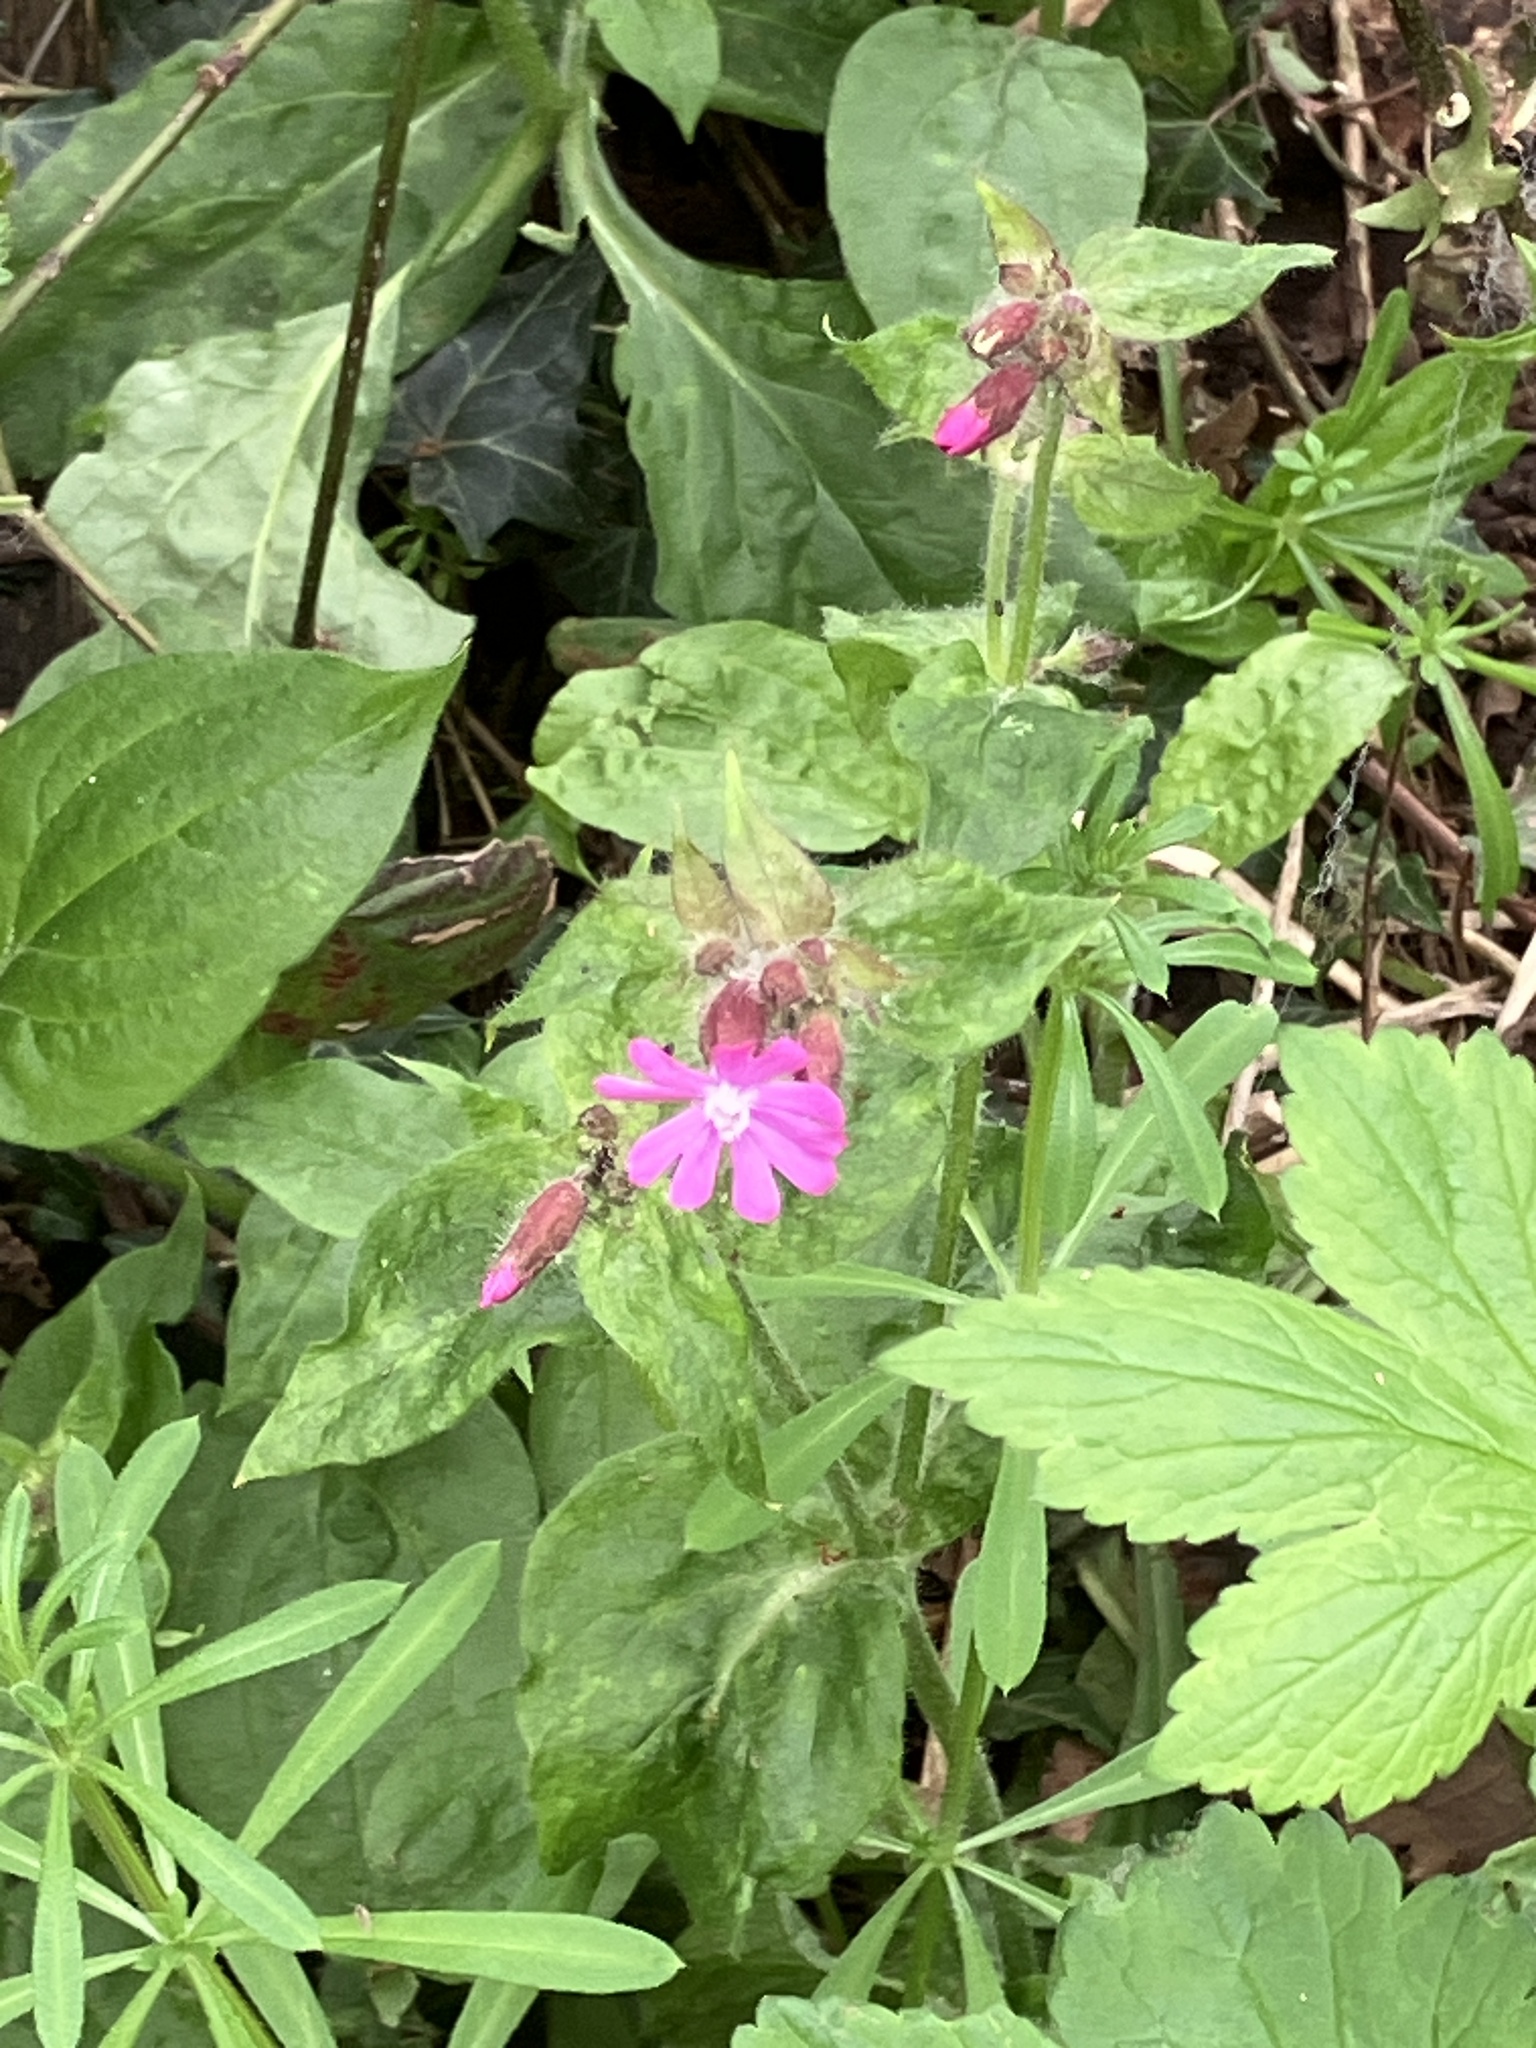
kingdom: Plantae
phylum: Tracheophyta
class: Magnoliopsida
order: Caryophyllales
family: Caryophyllaceae
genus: Silene
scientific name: Silene dioica
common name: Red campion
